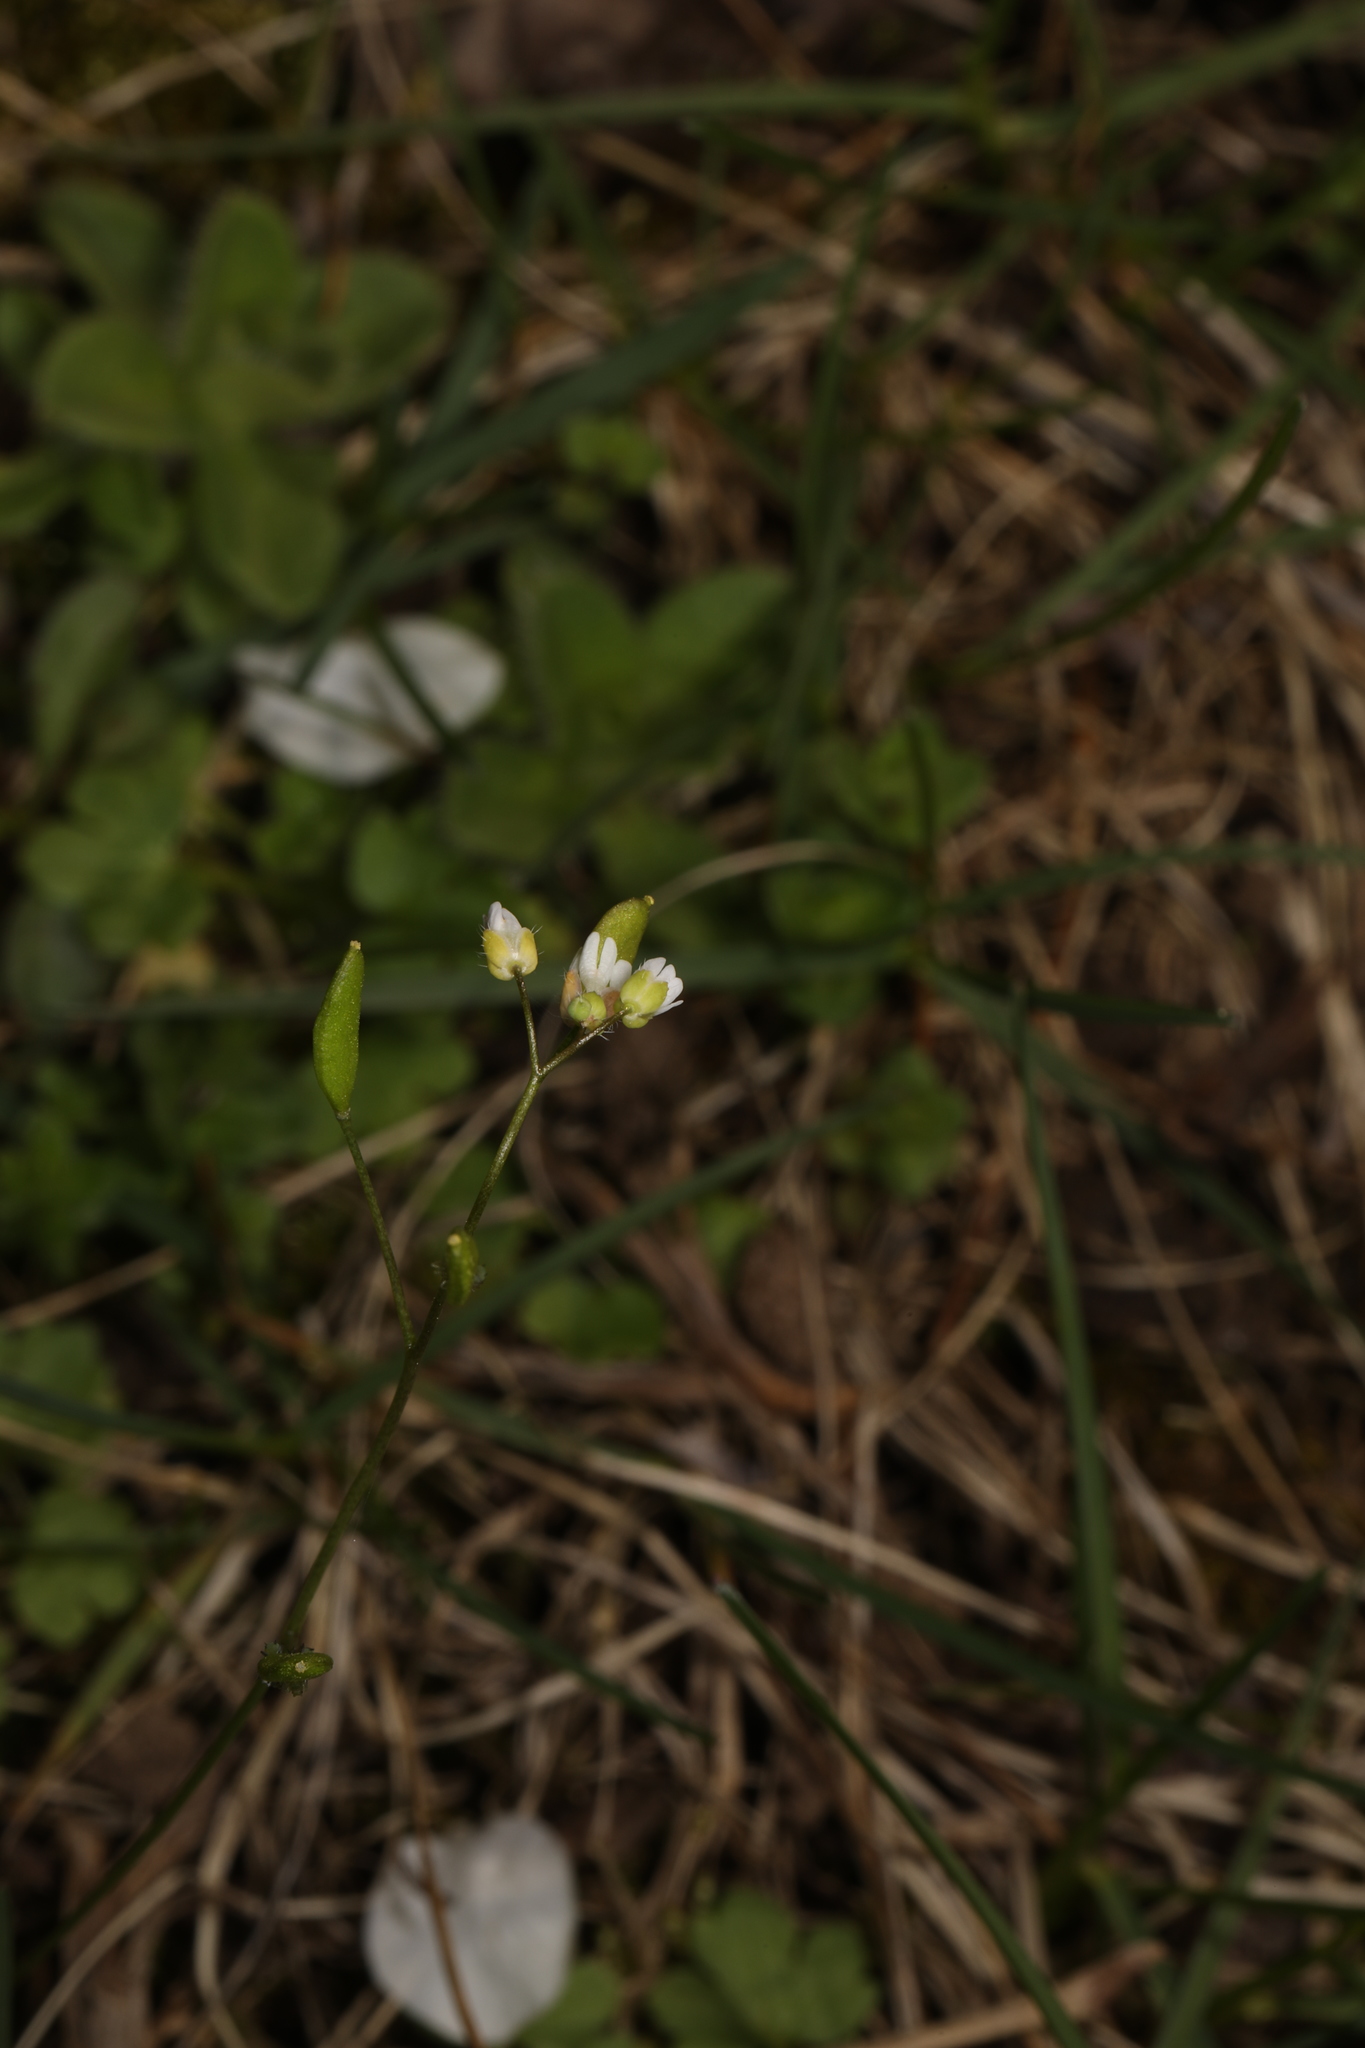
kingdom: Plantae
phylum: Tracheophyta
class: Magnoliopsida
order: Brassicales
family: Brassicaceae
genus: Draba
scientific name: Draba verna
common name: Spring draba
